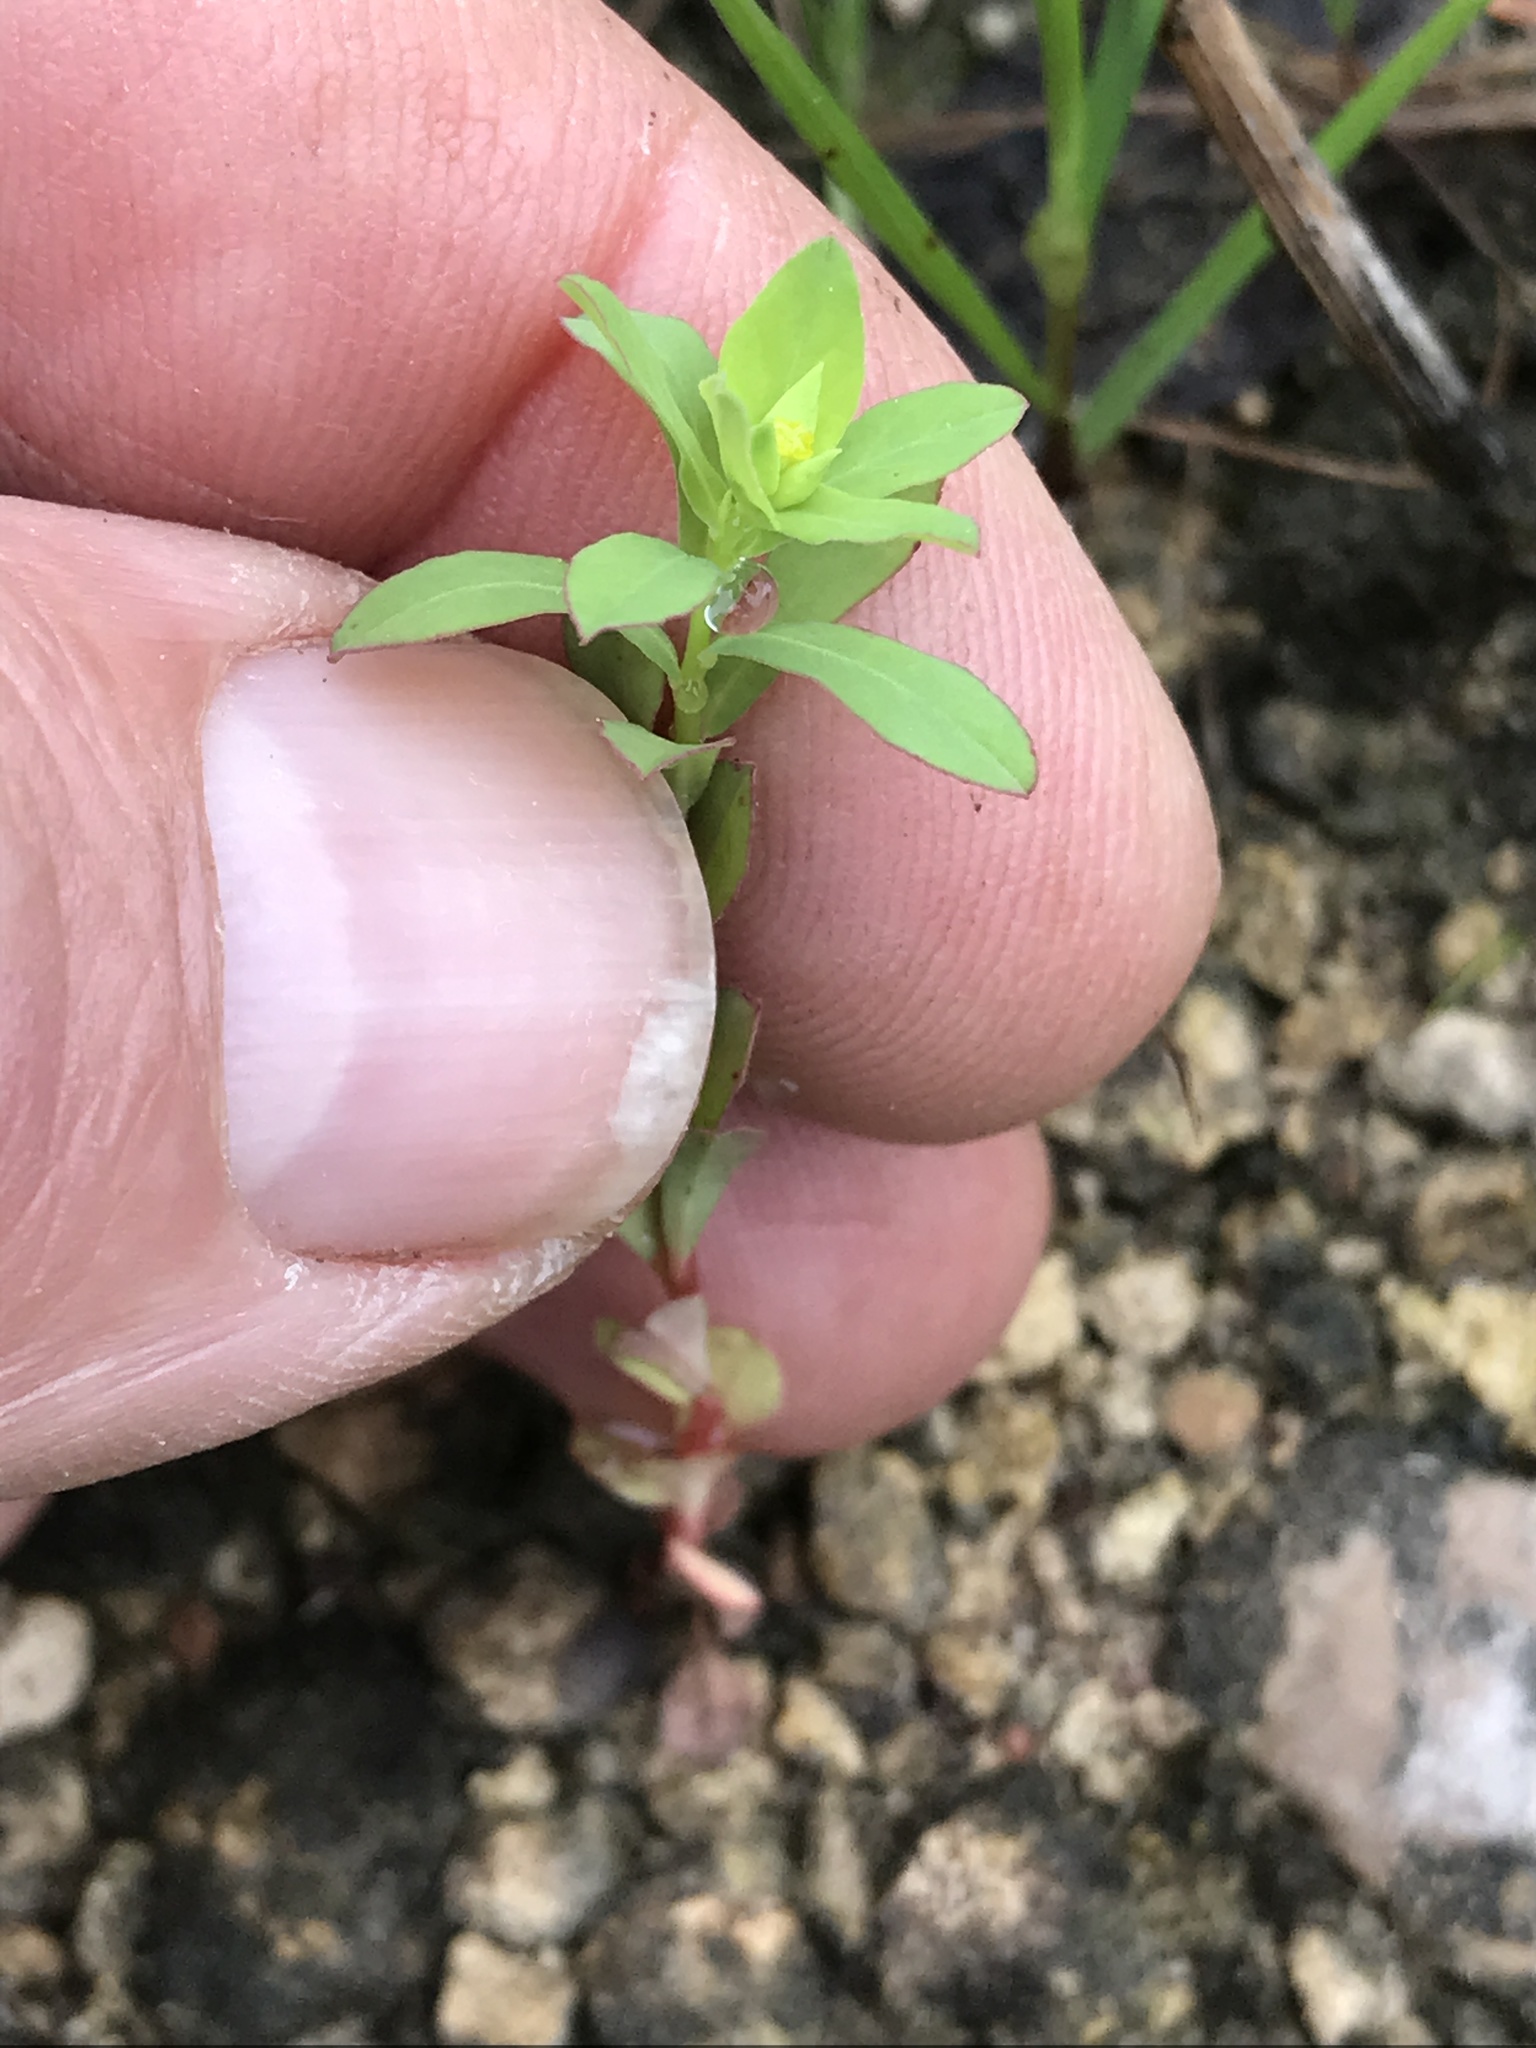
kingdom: Plantae
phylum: Tracheophyta
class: Magnoliopsida
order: Malpighiales
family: Euphorbiaceae
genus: Euphorbia
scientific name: Euphorbia spathulata
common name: Blunt spurge
